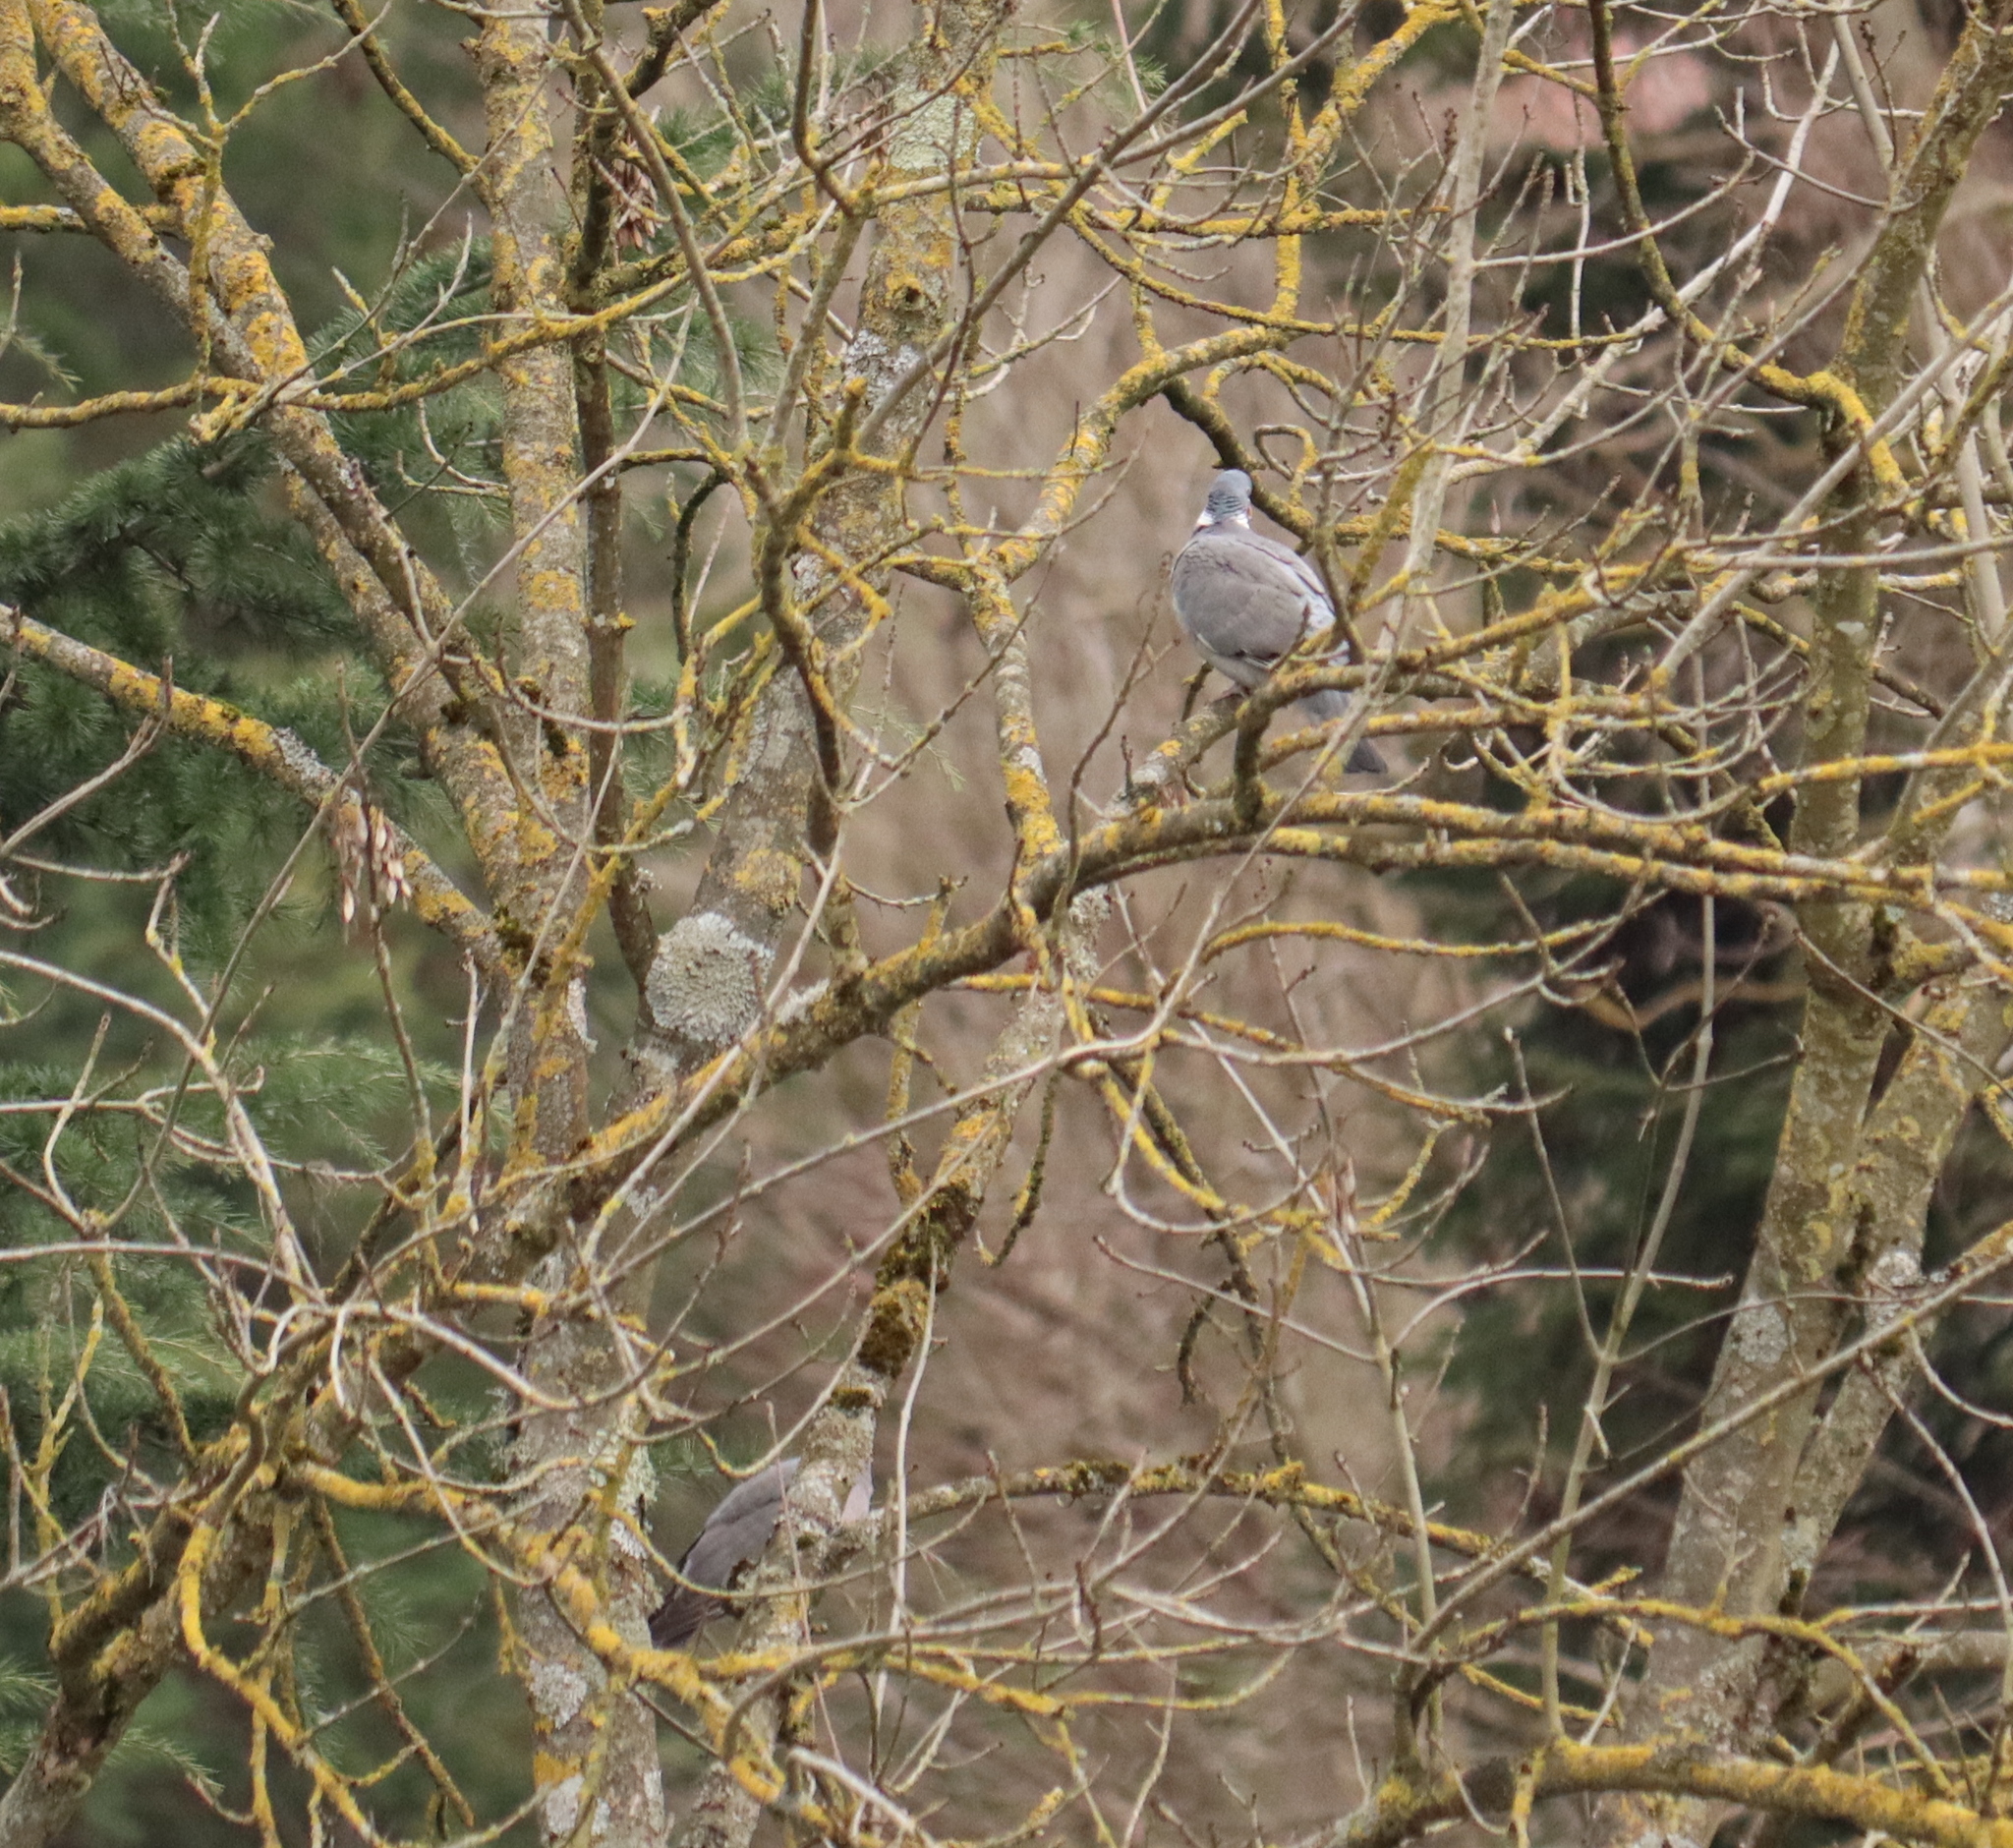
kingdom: Animalia
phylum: Chordata
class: Aves
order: Columbiformes
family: Columbidae
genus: Columba
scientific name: Columba palumbus
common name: Common wood pigeon
